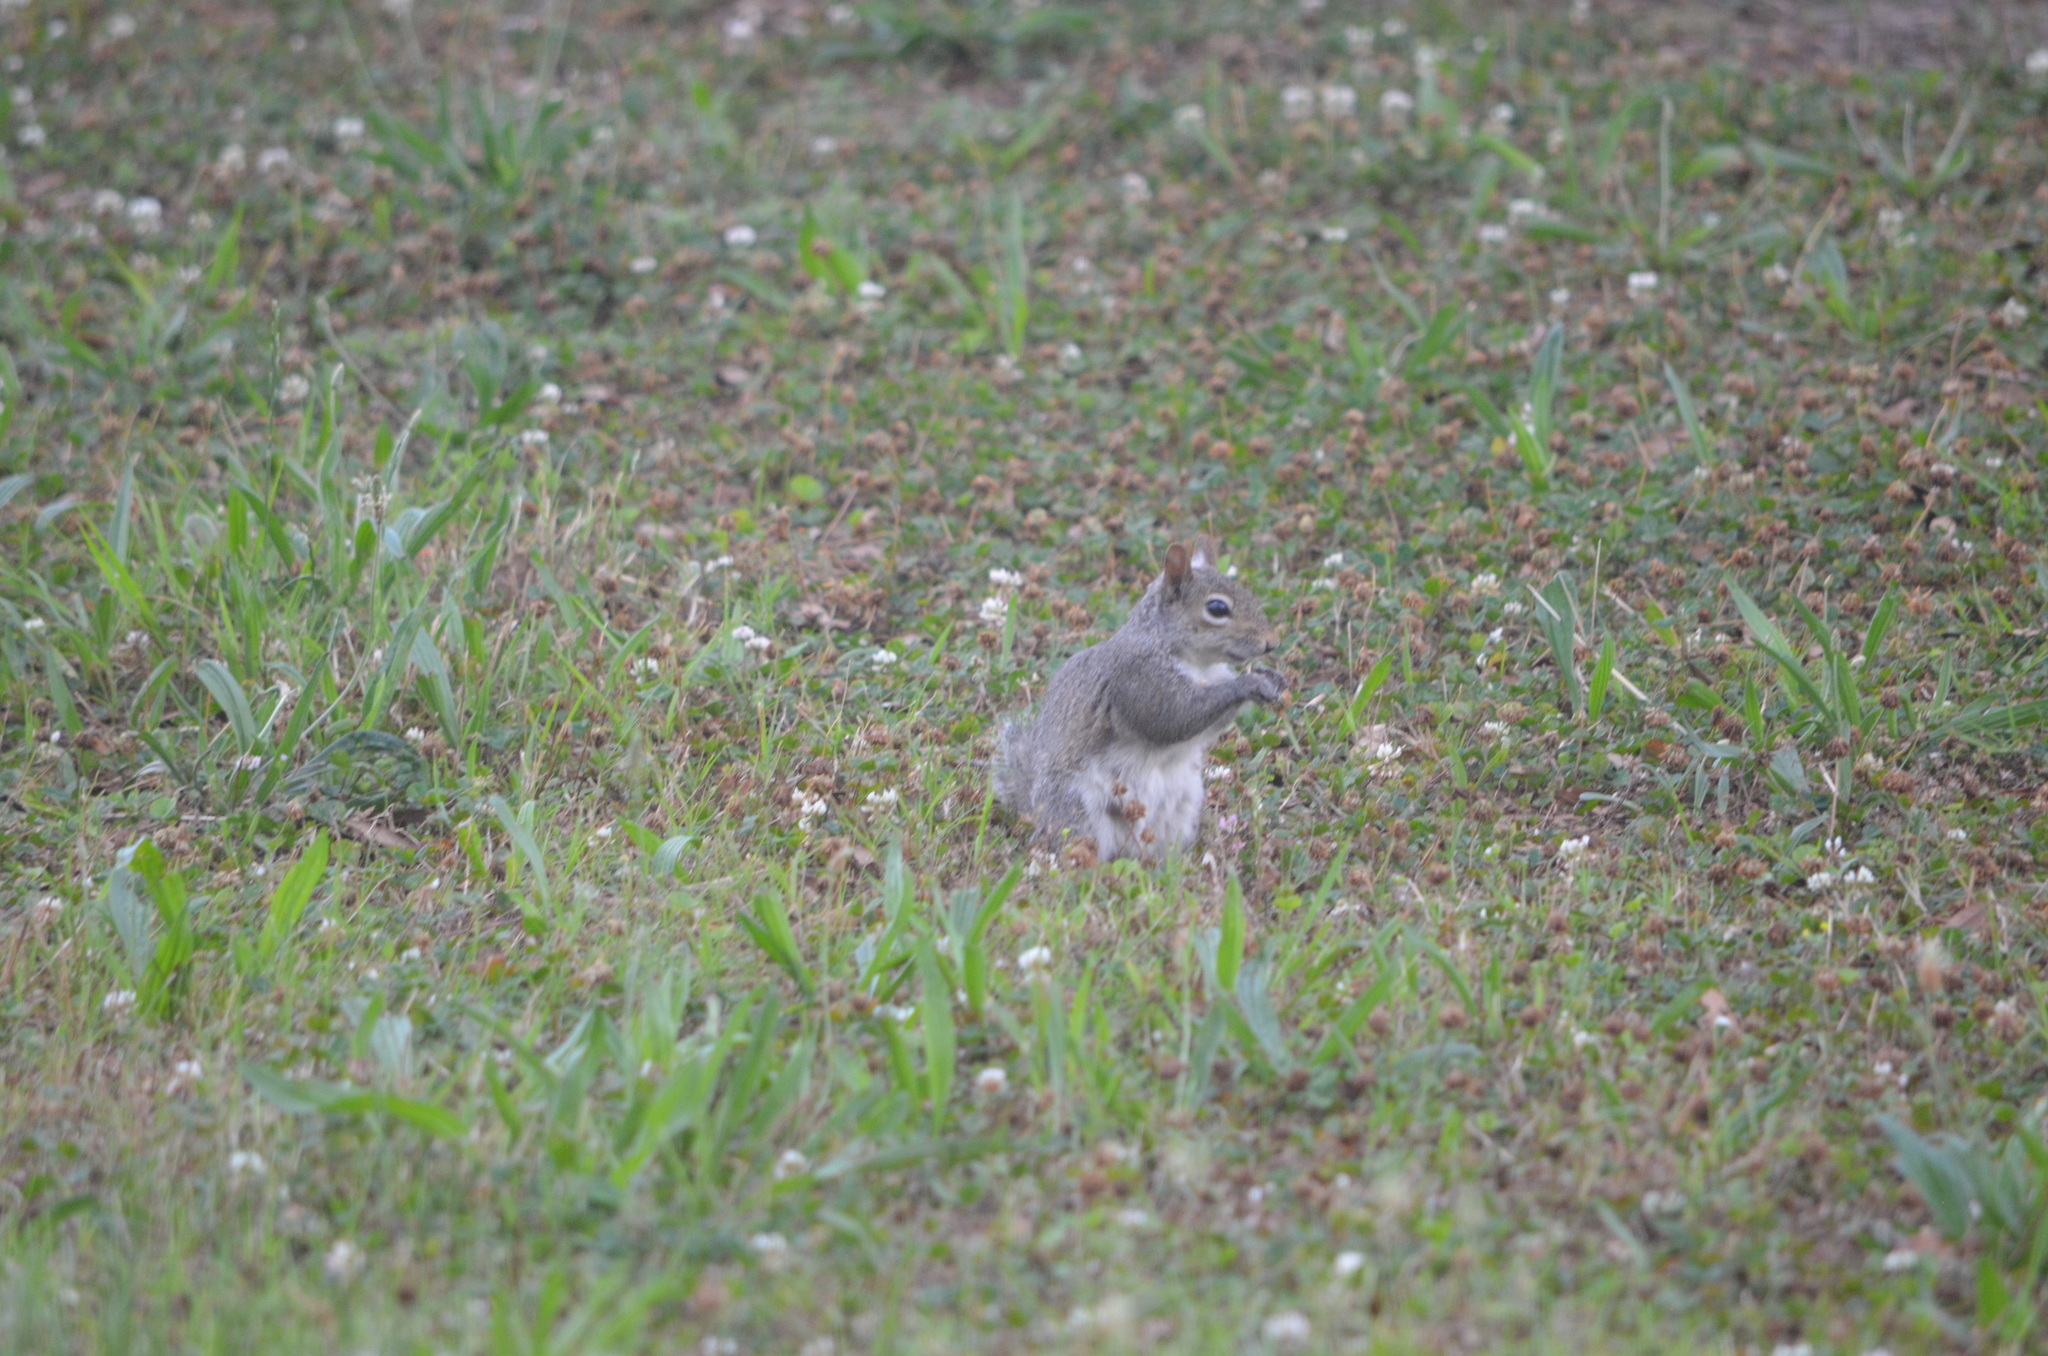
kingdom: Animalia
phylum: Chordata
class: Mammalia
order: Rodentia
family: Sciuridae
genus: Sciurus
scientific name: Sciurus carolinensis
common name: Eastern gray squirrel
